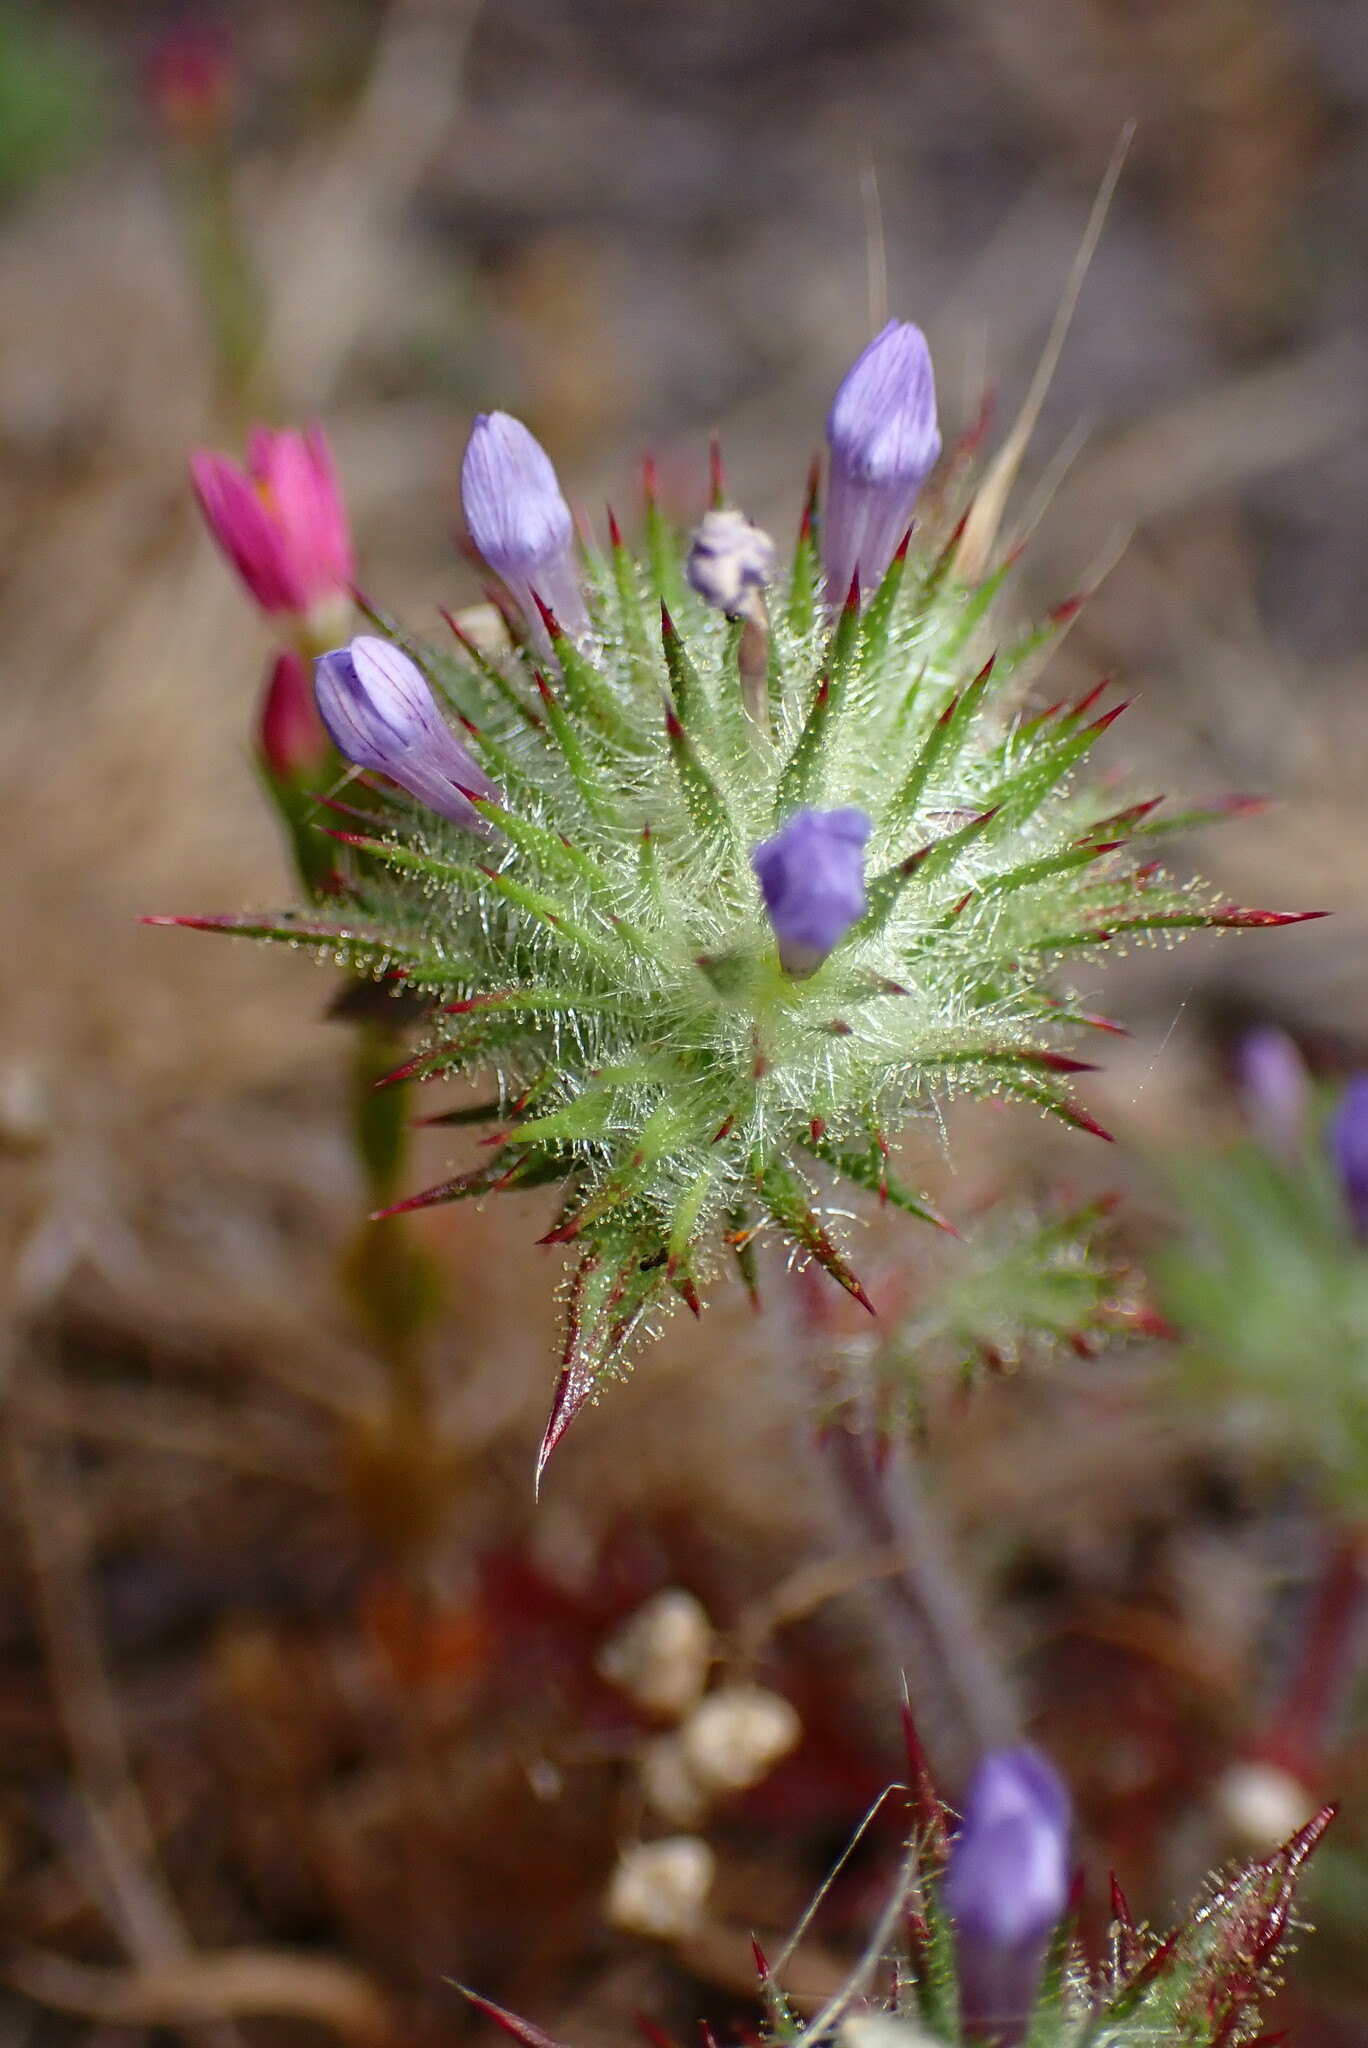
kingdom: Plantae
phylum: Tracheophyta
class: Magnoliopsida
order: Ericales
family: Polemoniaceae
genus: Navarretia
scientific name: Navarretia squarrosa
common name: Skunkweed
